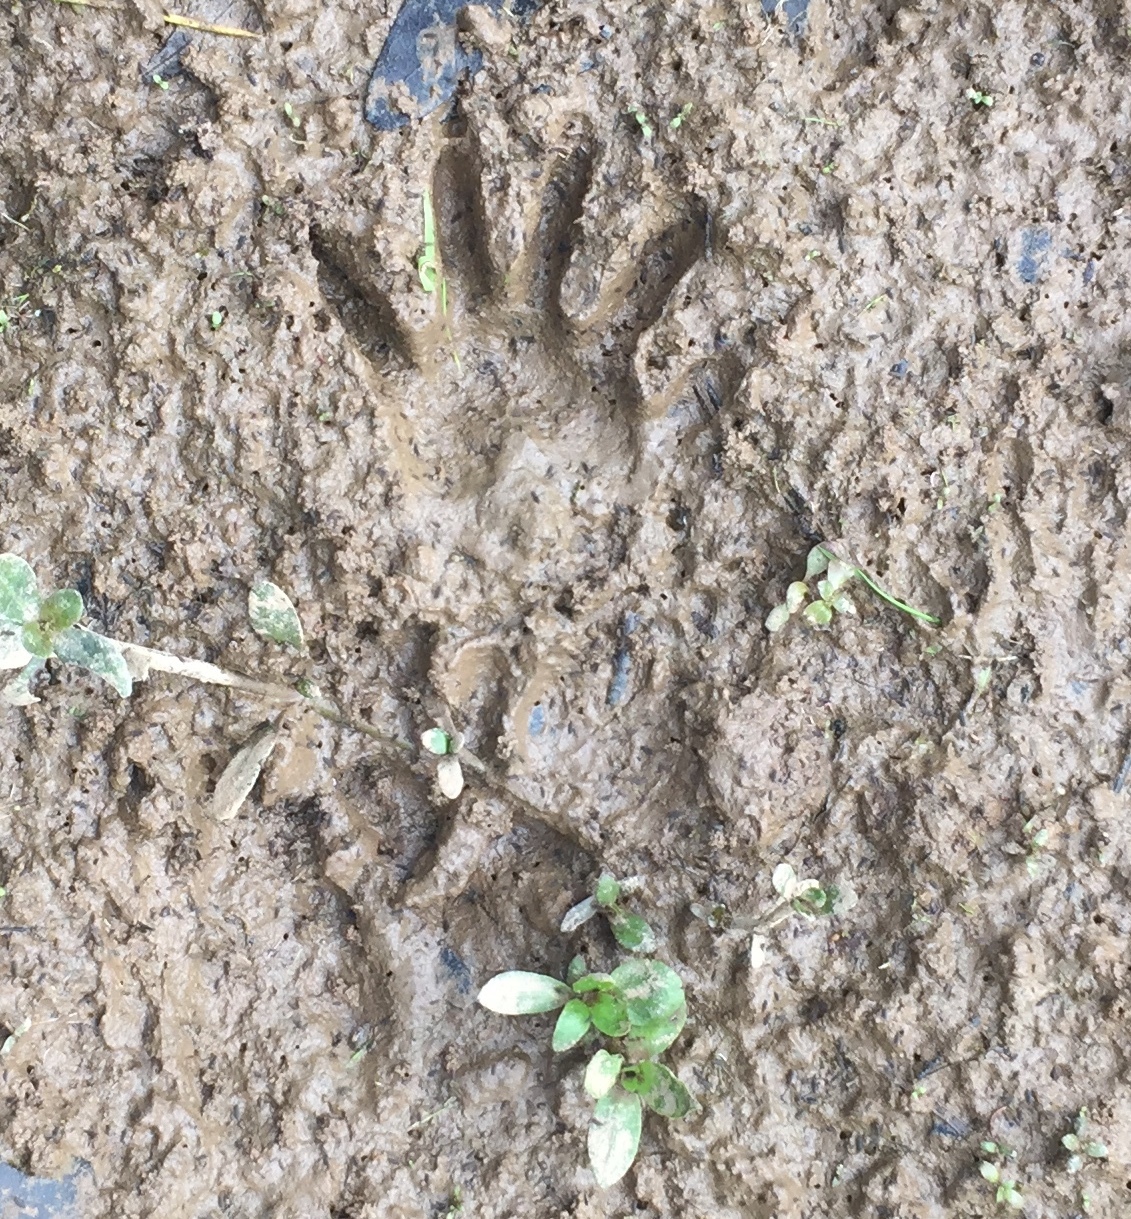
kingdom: Animalia
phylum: Chordata
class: Mammalia
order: Carnivora
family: Procyonidae
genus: Procyon
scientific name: Procyon lotor
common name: Raccoon
